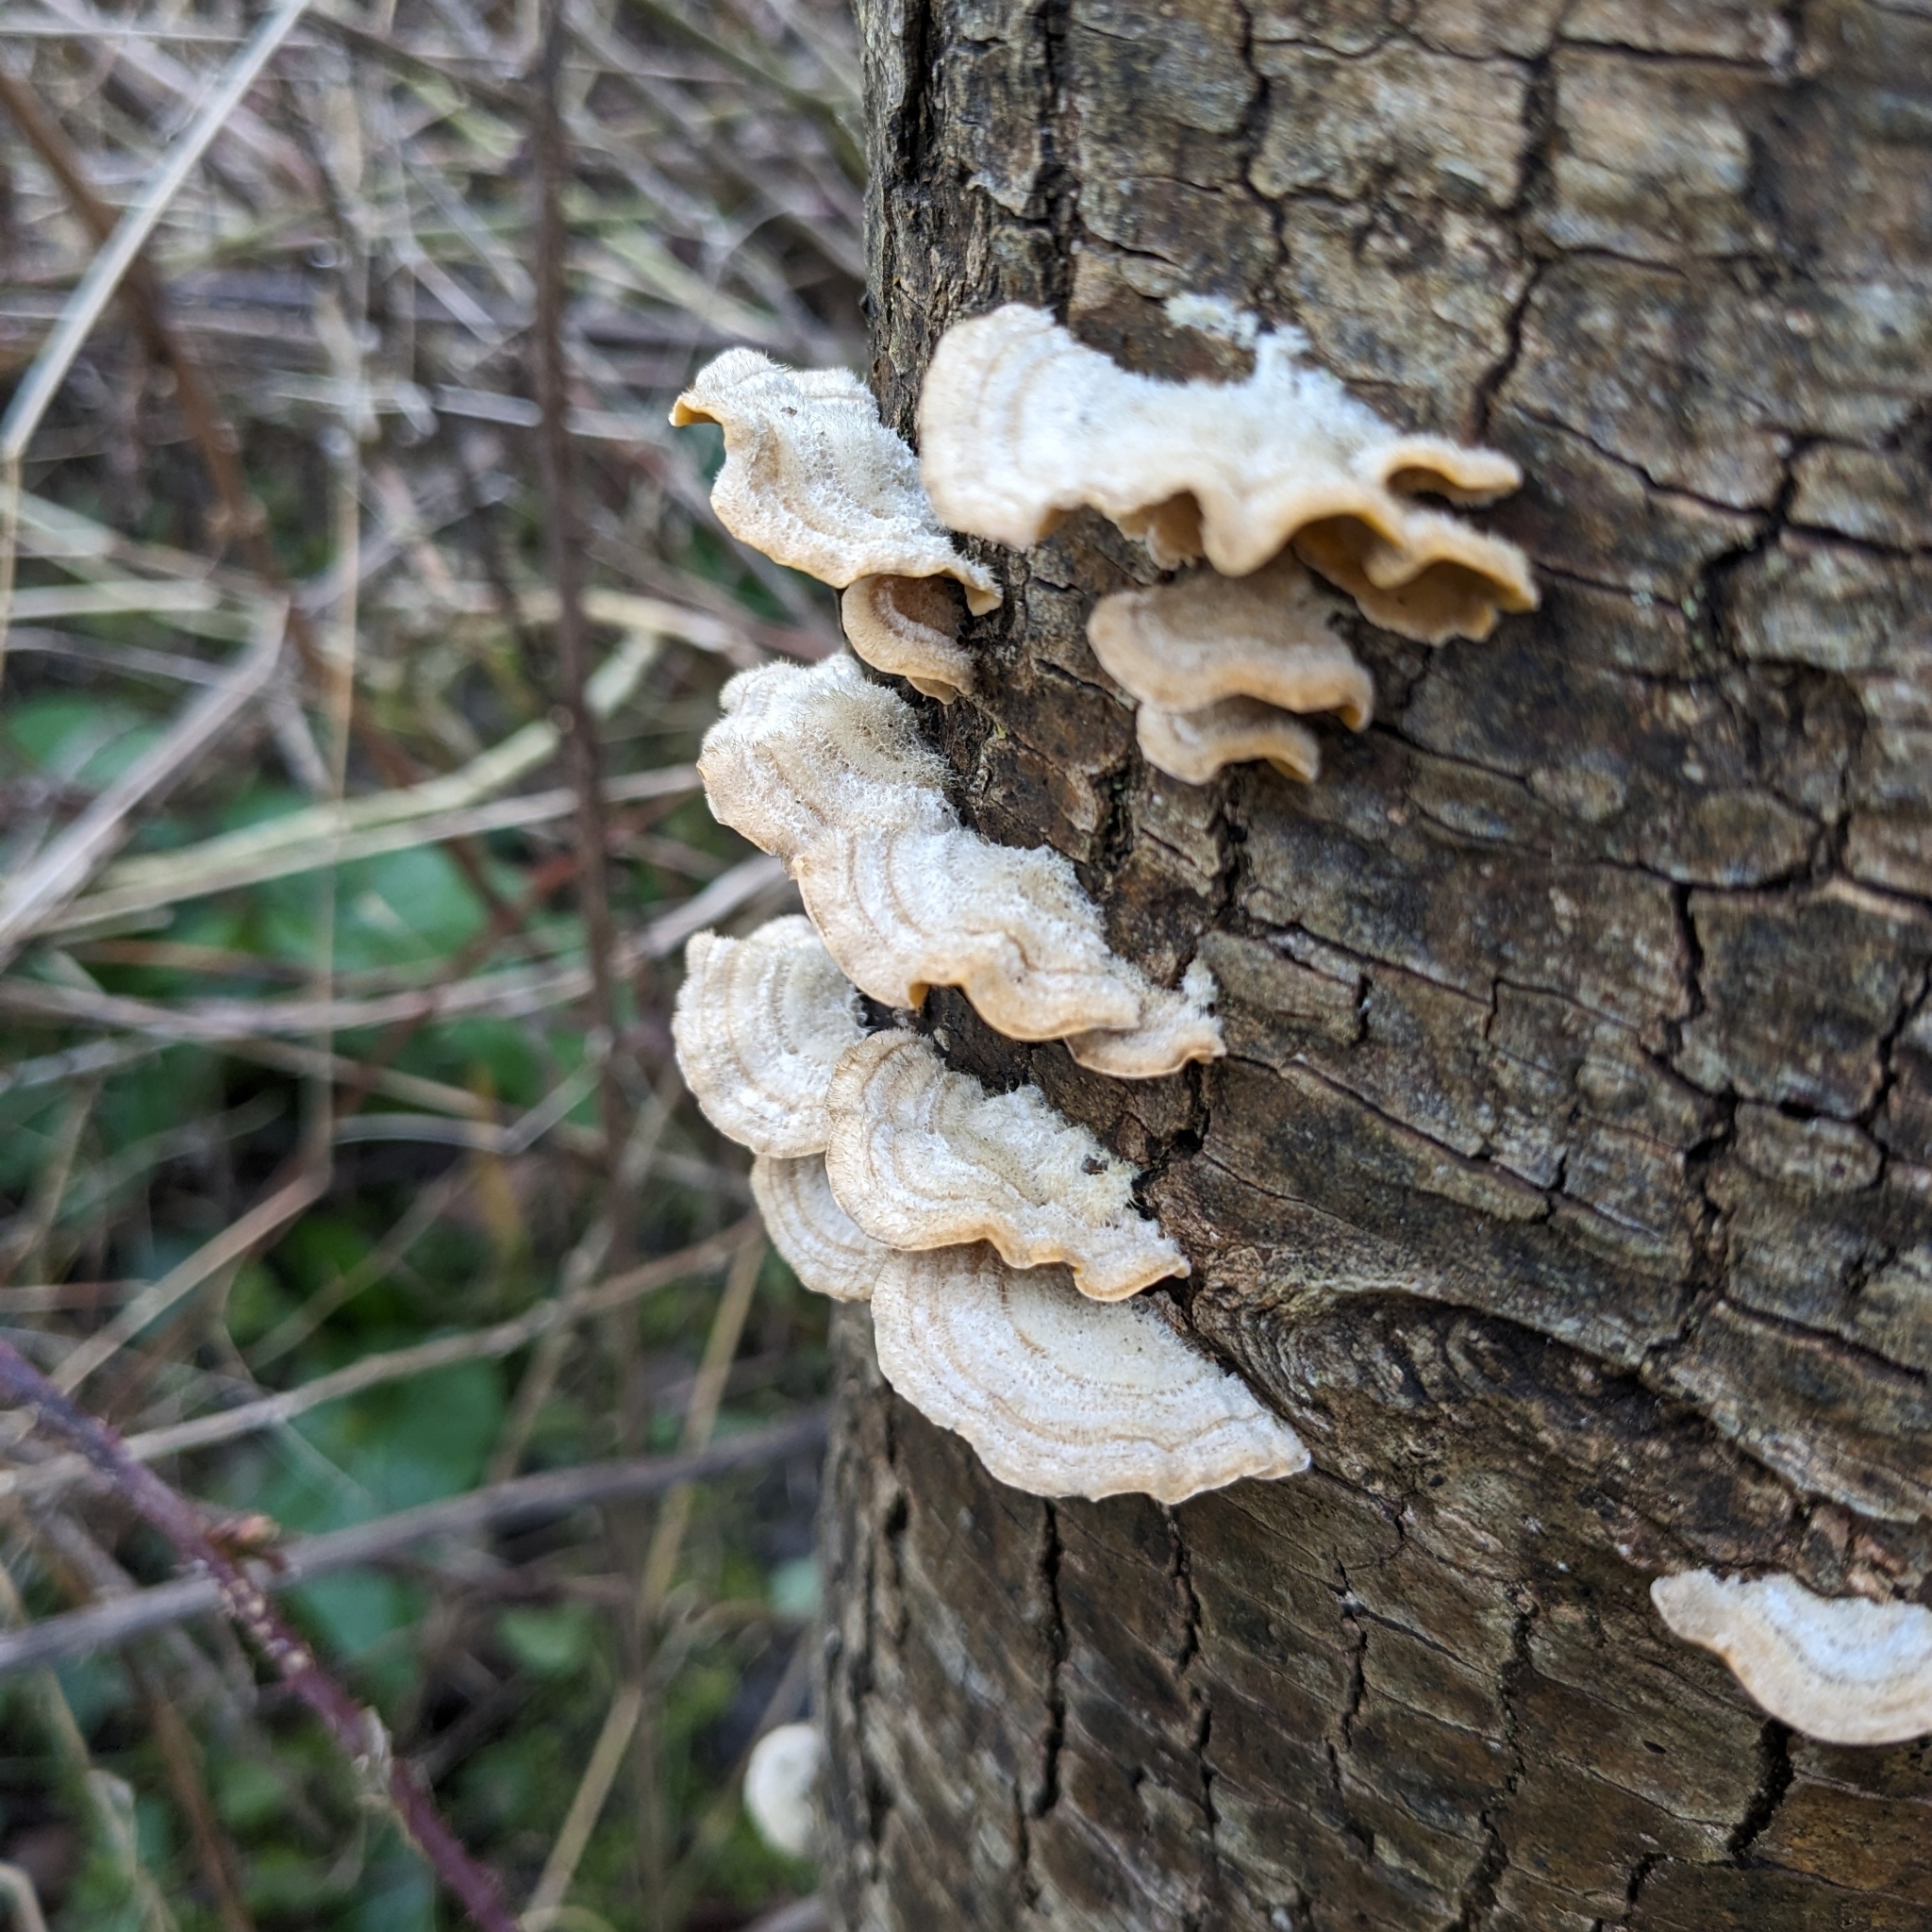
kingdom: Fungi
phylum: Basidiomycota
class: Agaricomycetes
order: Russulales
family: Stereaceae
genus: Stereum
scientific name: Stereum hirsutum
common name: Hairy curtain crust
